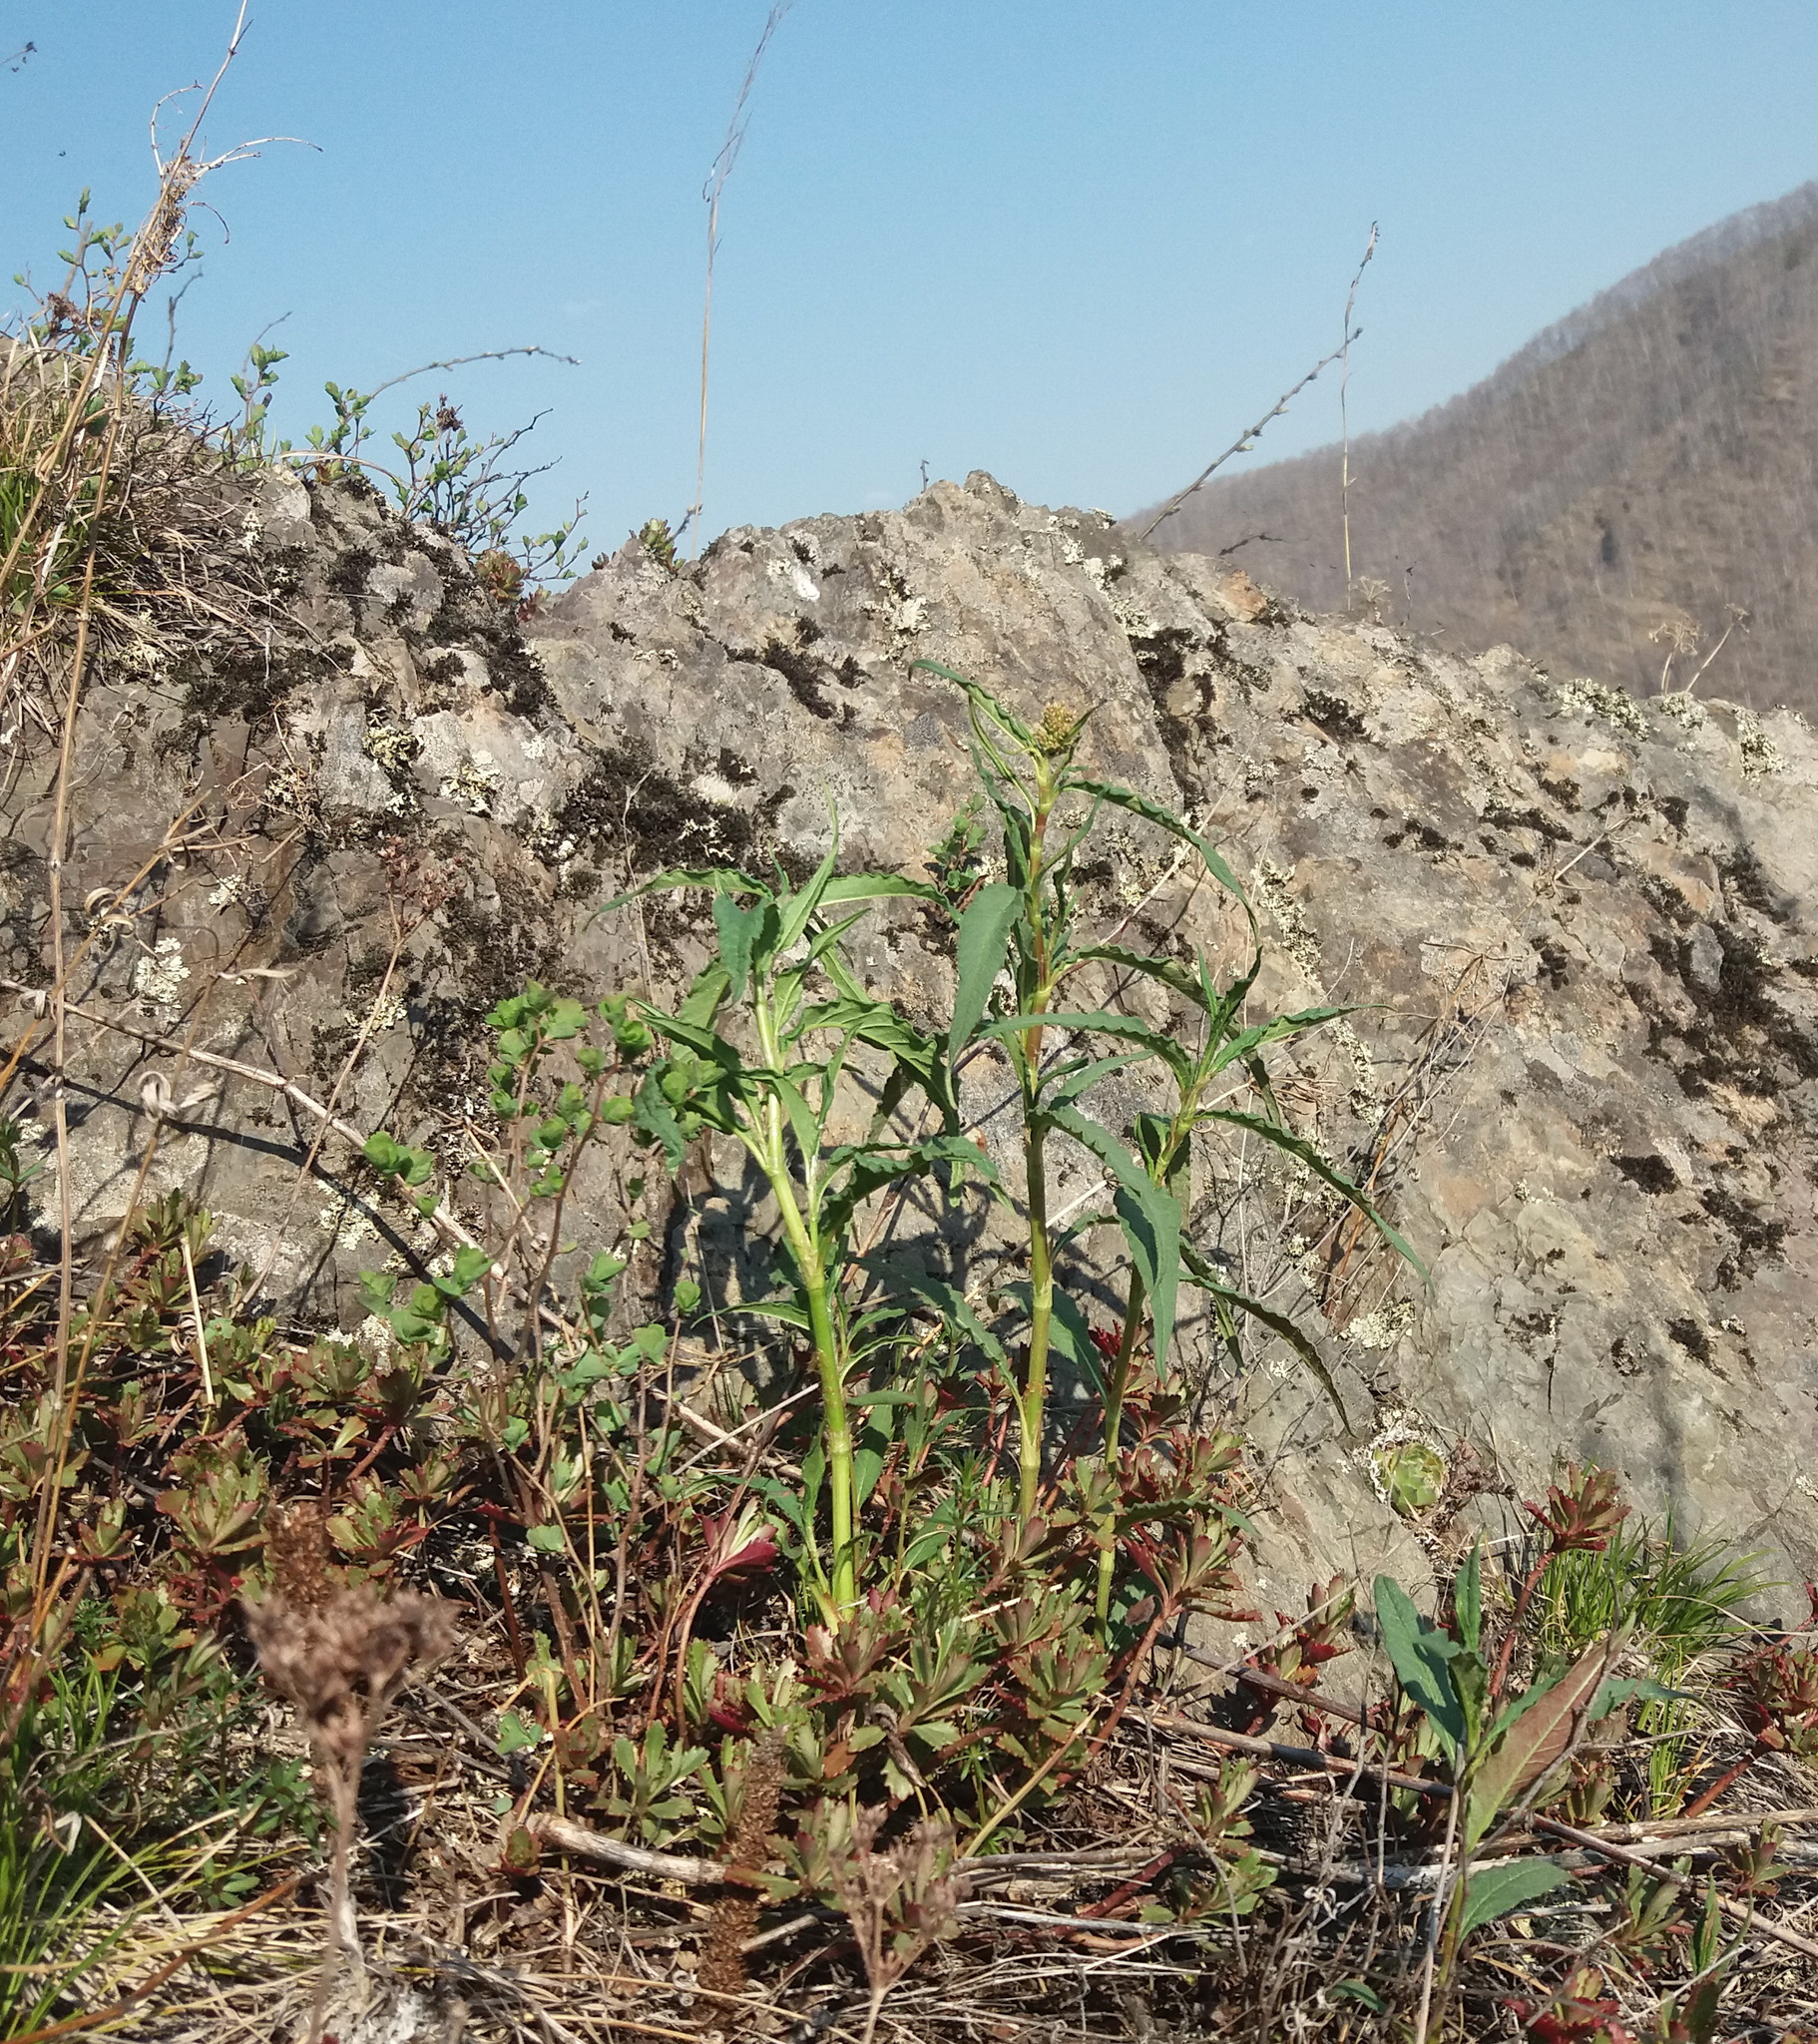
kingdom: Plantae
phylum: Tracheophyta
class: Magnoliopsida
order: Caryophyllales
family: Polygonaceae
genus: Koenigia
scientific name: Koenigia alpina
